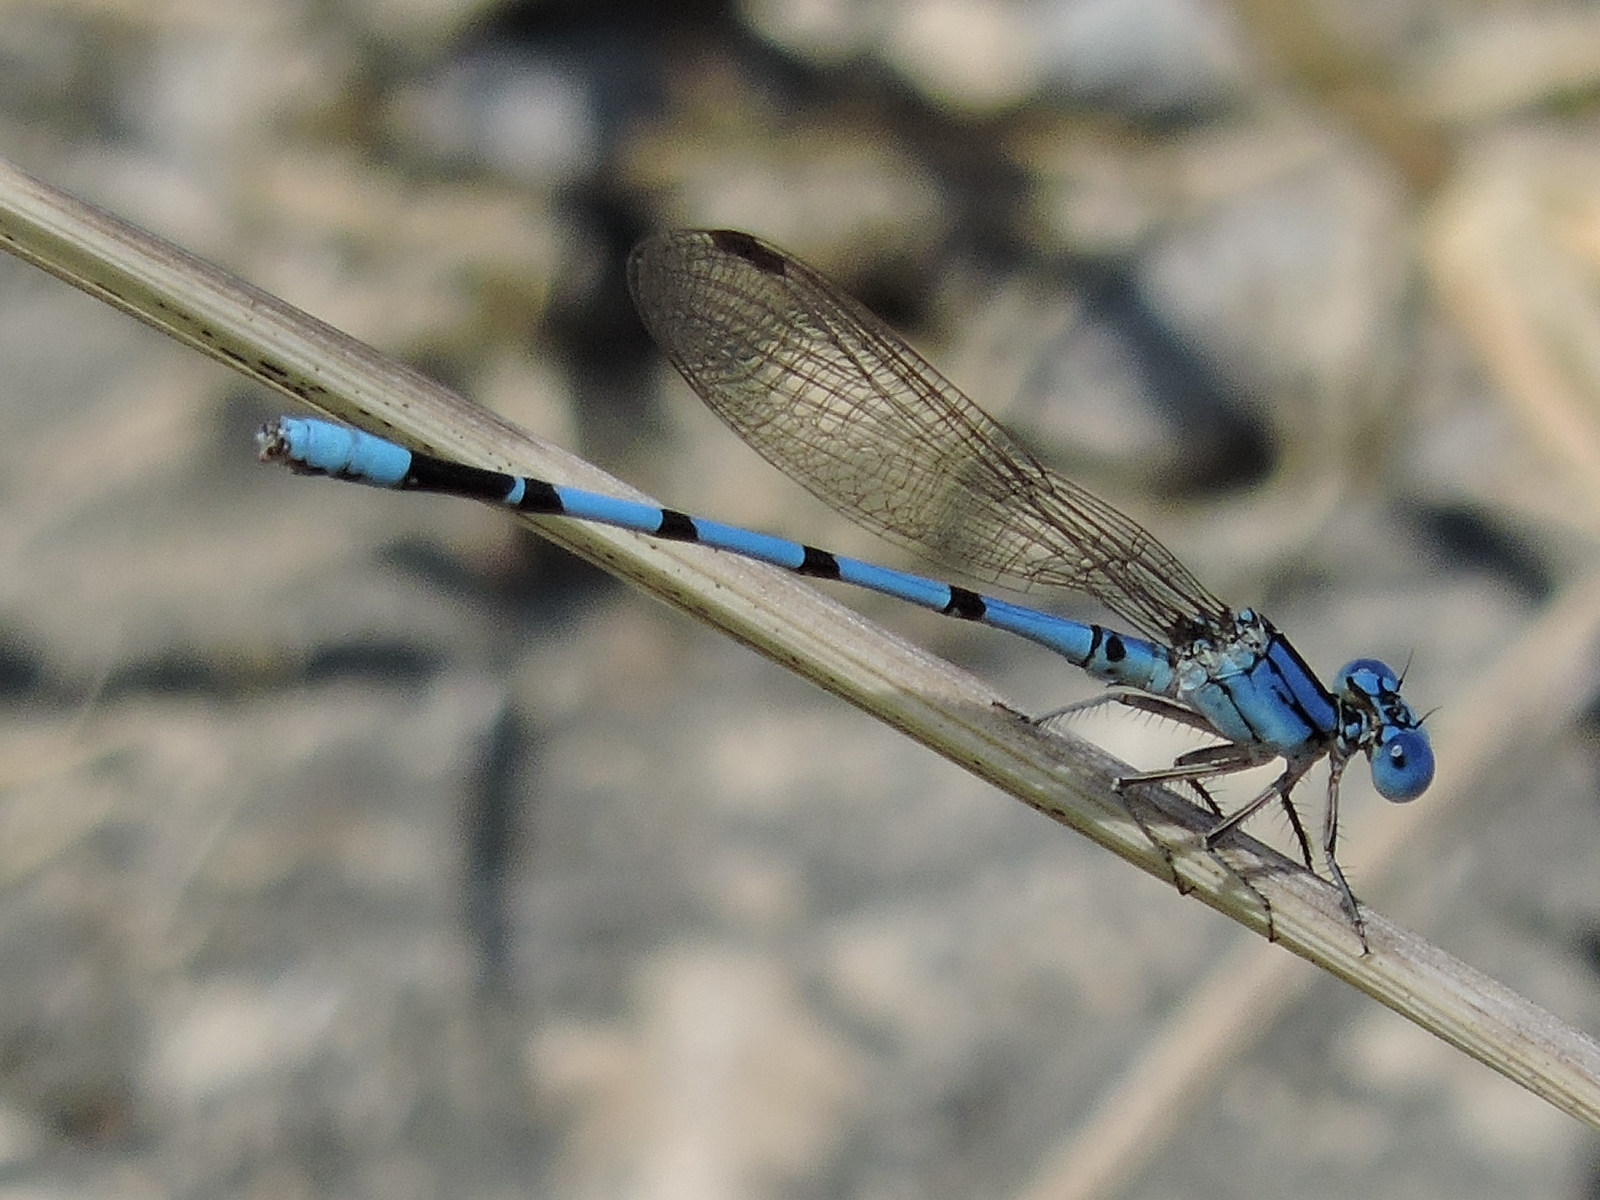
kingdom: Animalia
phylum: Arthropoda
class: Insecta
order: Odonata
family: Coenagrionidae
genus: Argia
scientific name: Argia nahuana
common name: Aztec dancer
